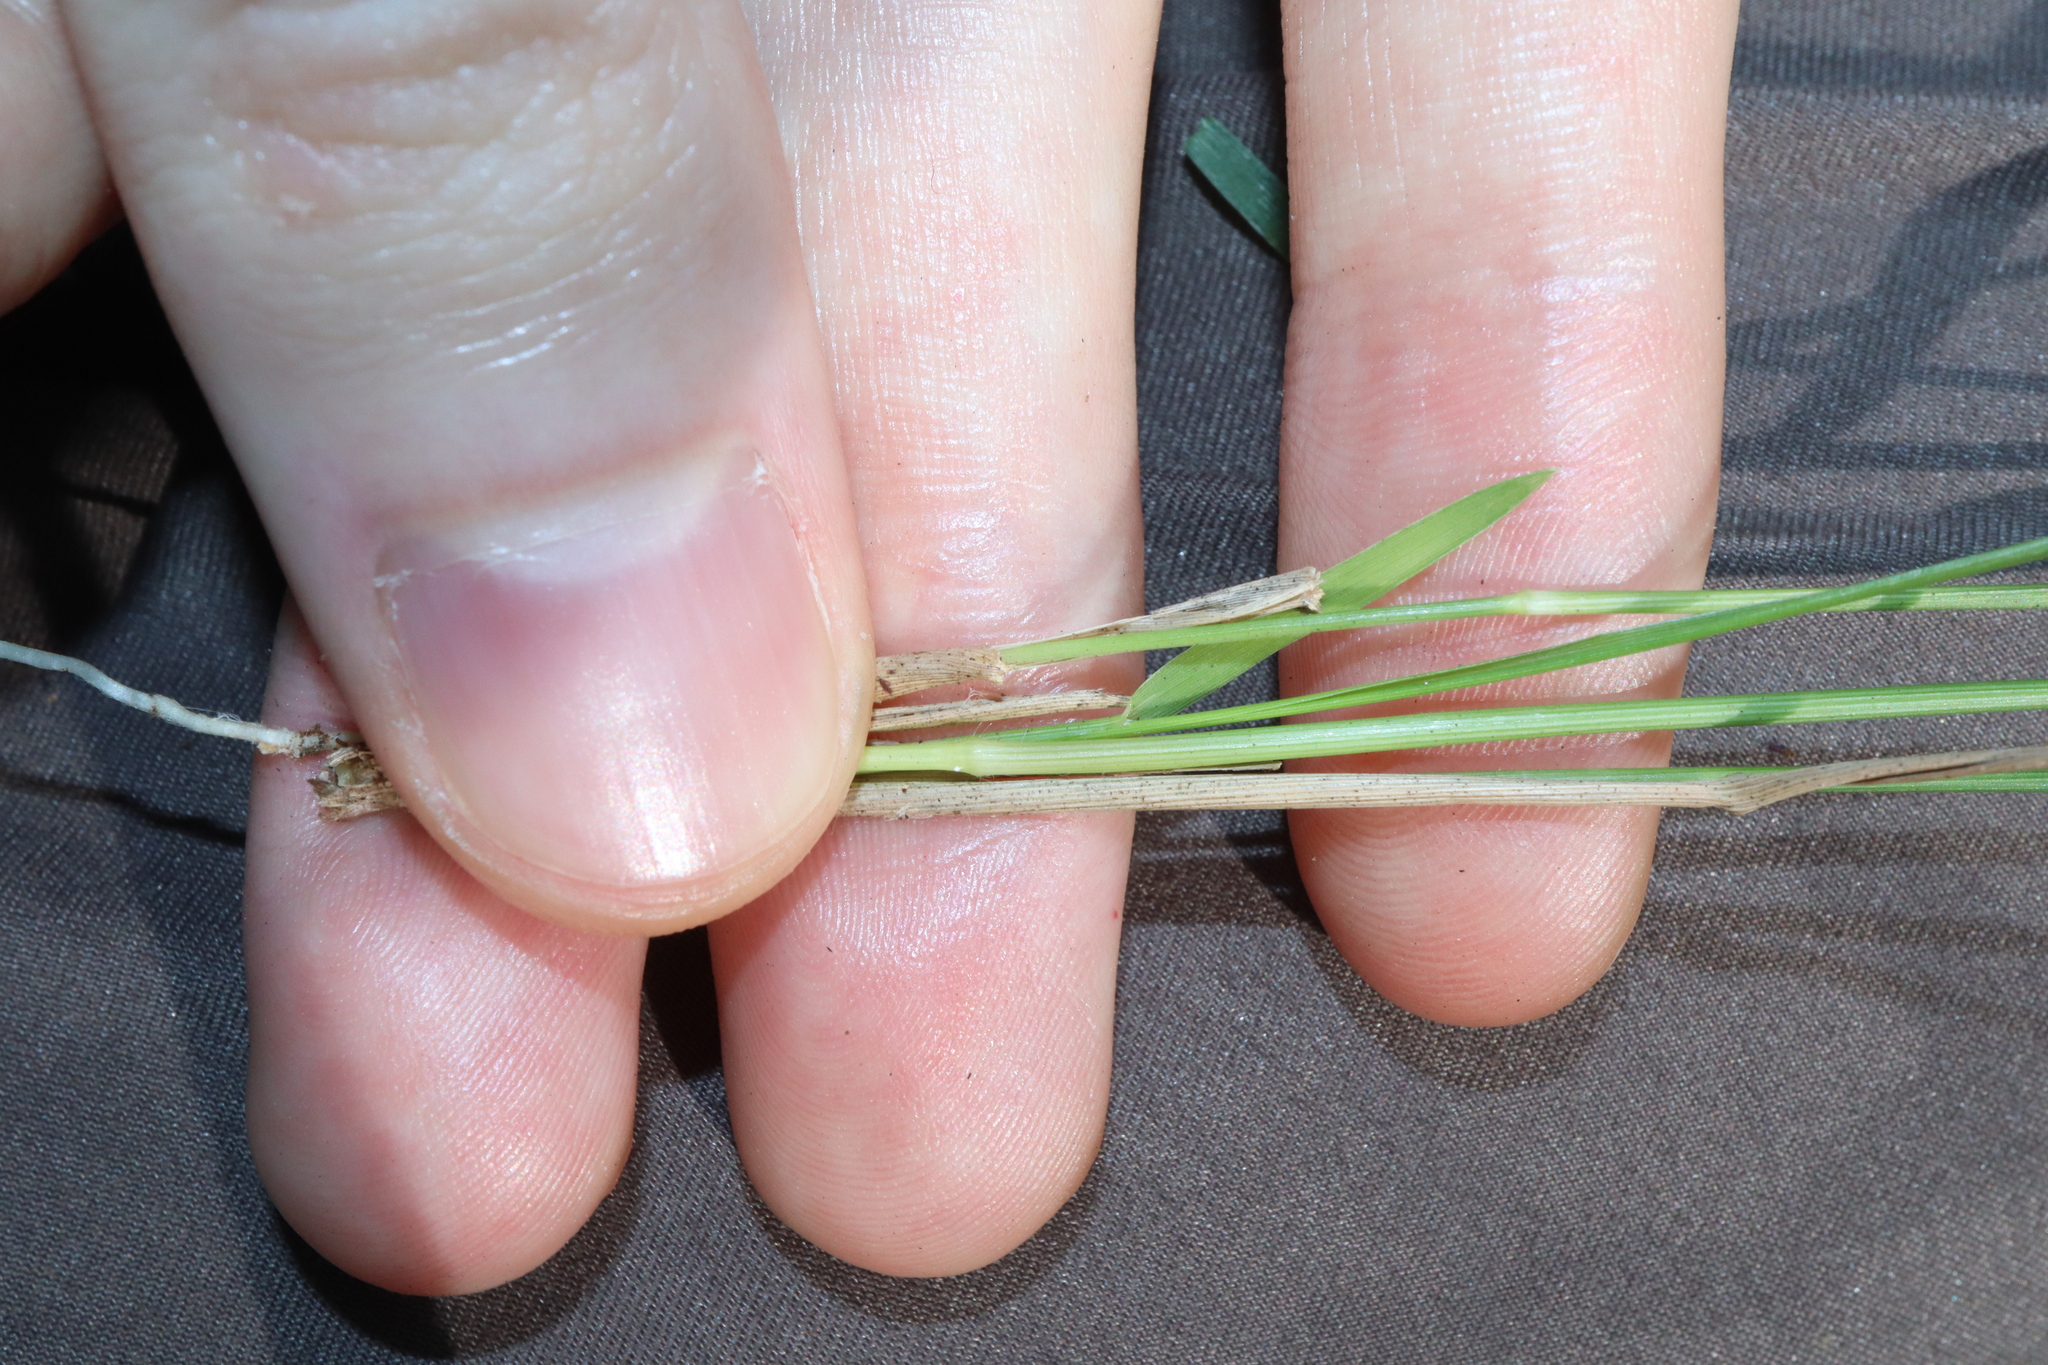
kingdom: Plantae
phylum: Tracheophyta
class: Liliopsida
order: Poales
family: Poaceae
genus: Panicum
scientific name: Panicum simile
